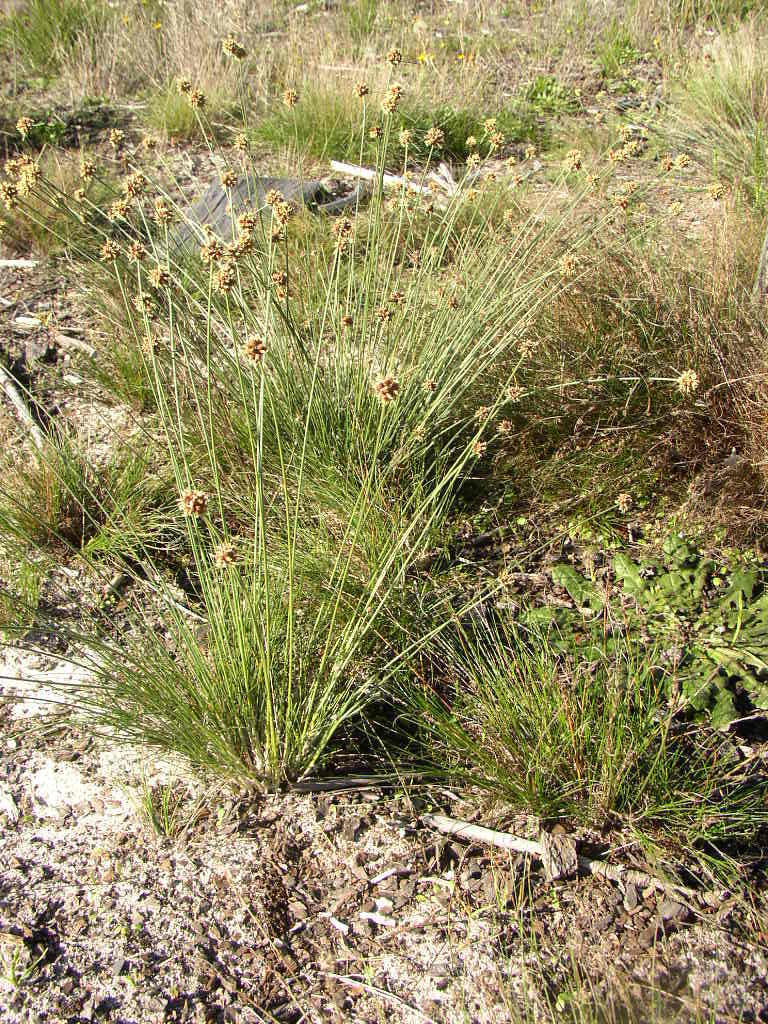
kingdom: Plantae
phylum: Tracheophyta
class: Liliopsida
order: Poales
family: Cyperaceae
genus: Ficinia
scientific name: Ficinia ecklonea
